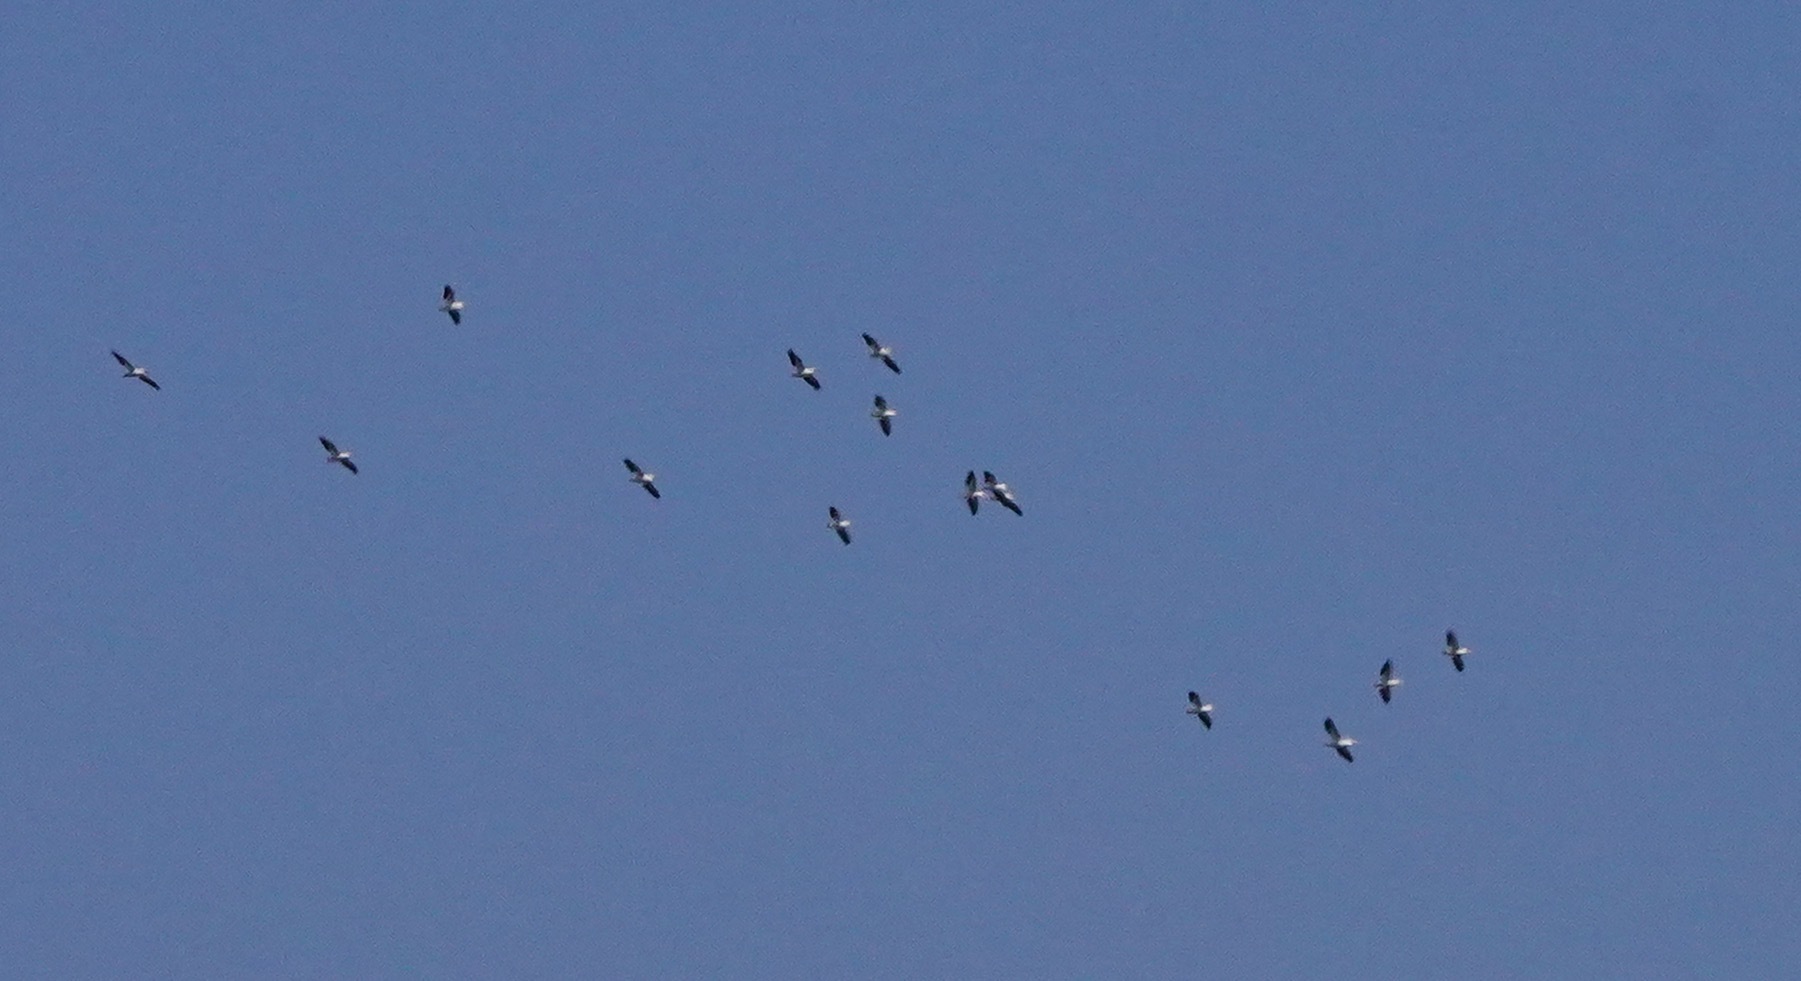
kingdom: Animalia
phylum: Chordata
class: Aves
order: Pelecaniformes
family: Pelecanidae
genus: Pelecanus
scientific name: Pelecanus erythrorhynchos
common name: American white pelican
